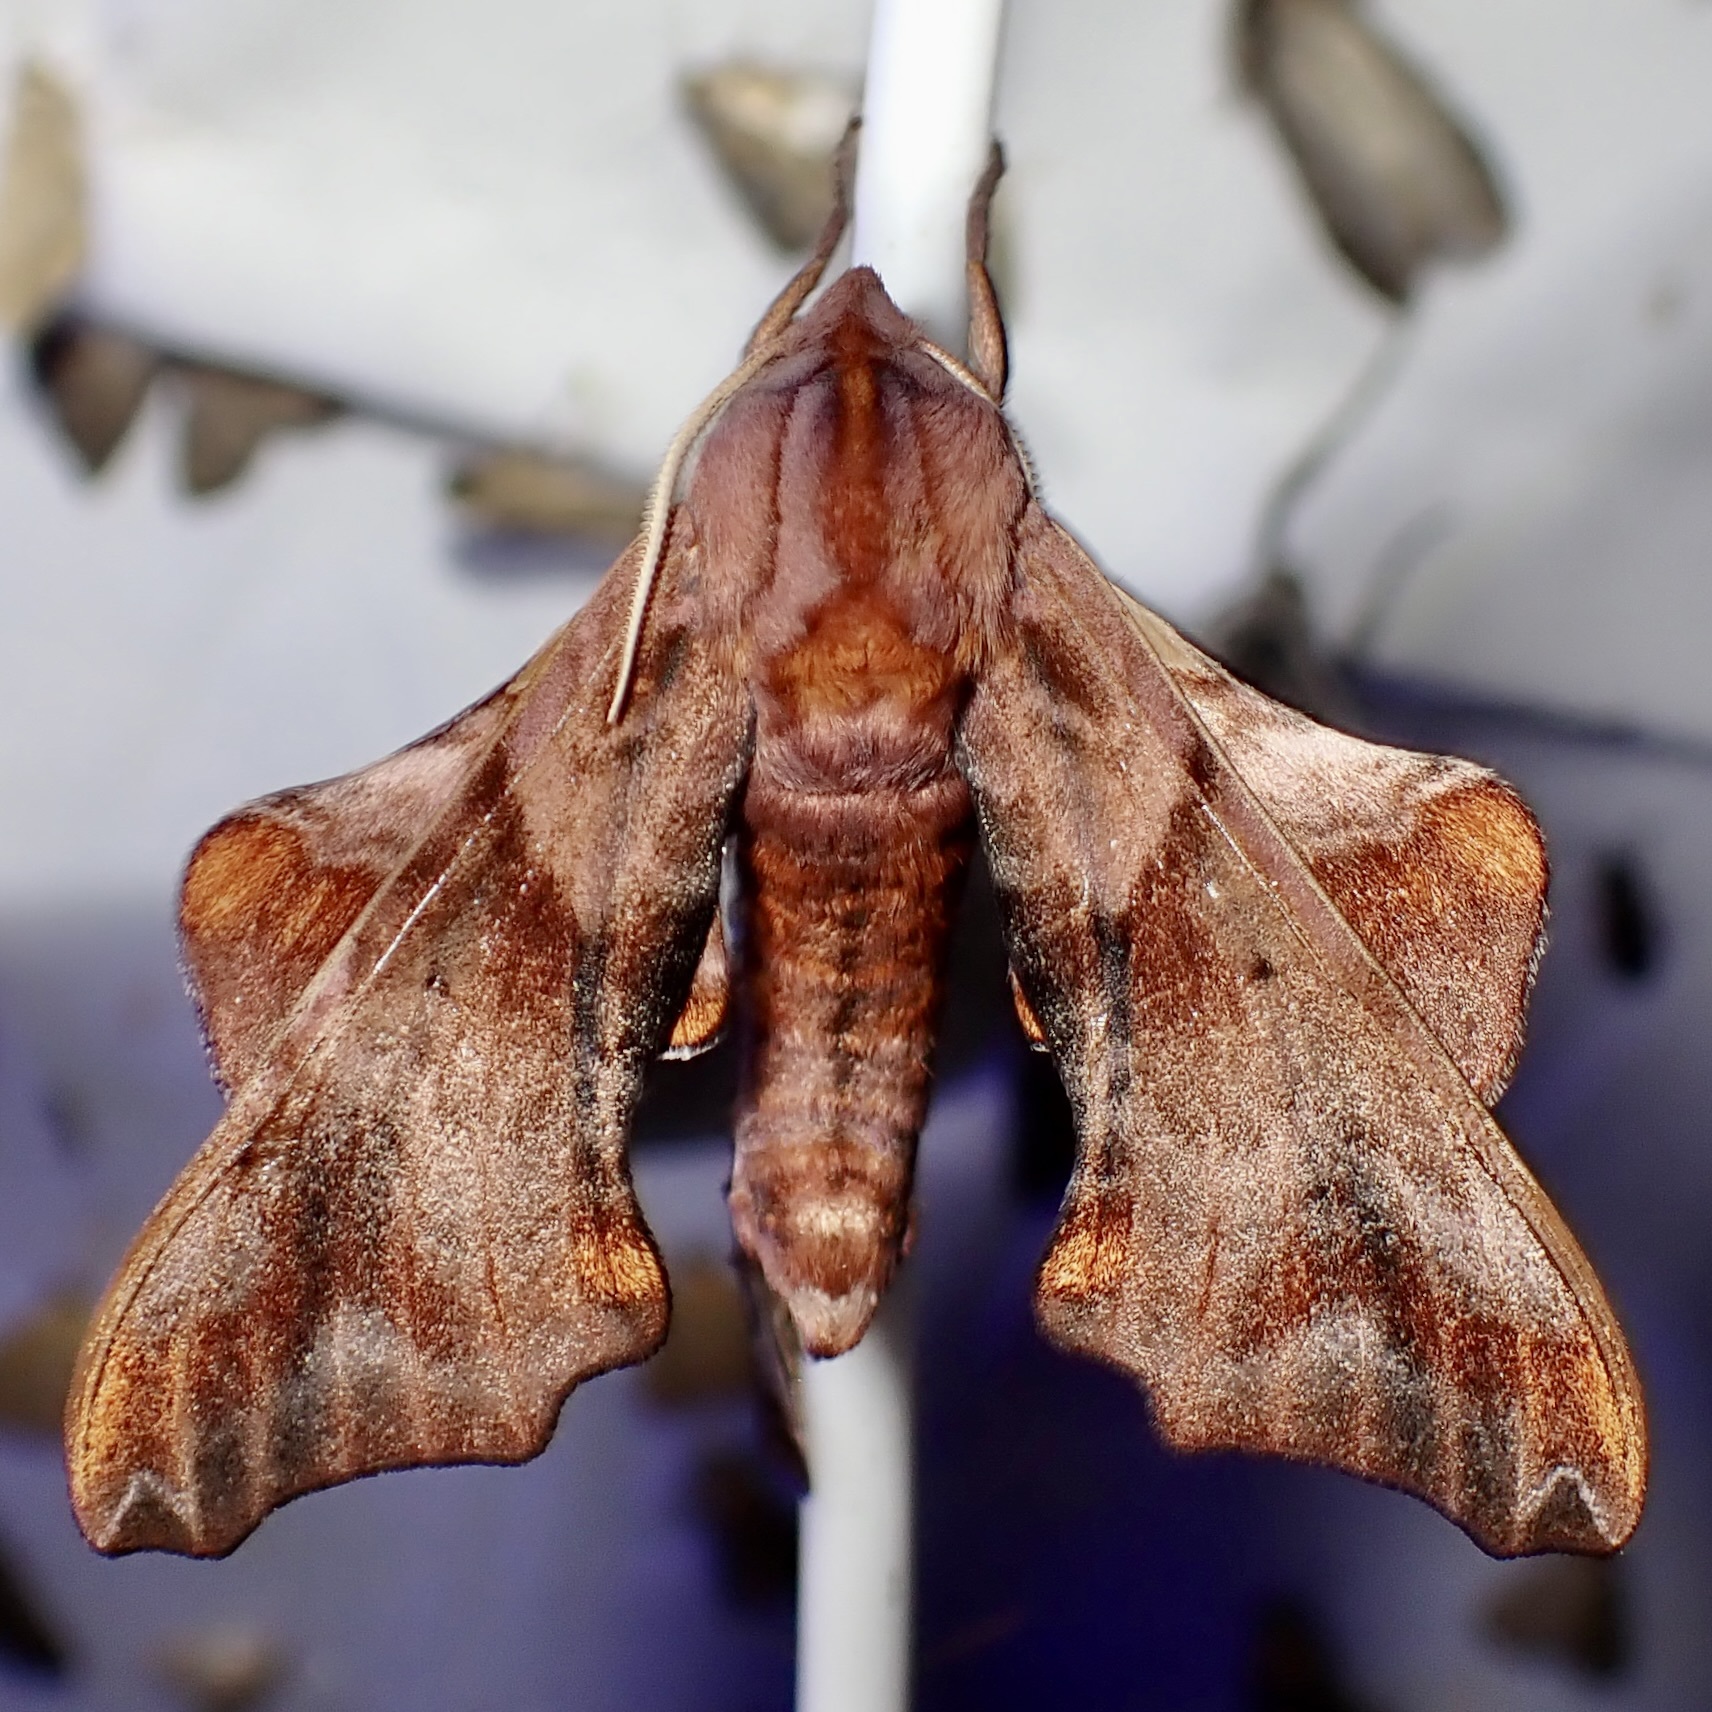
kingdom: Animalia
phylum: Arthropoda
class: Insecta
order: Lepidoptera
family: Sphingidae
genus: Paonias
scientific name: Paonias myops
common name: Small-eyed sphinx
